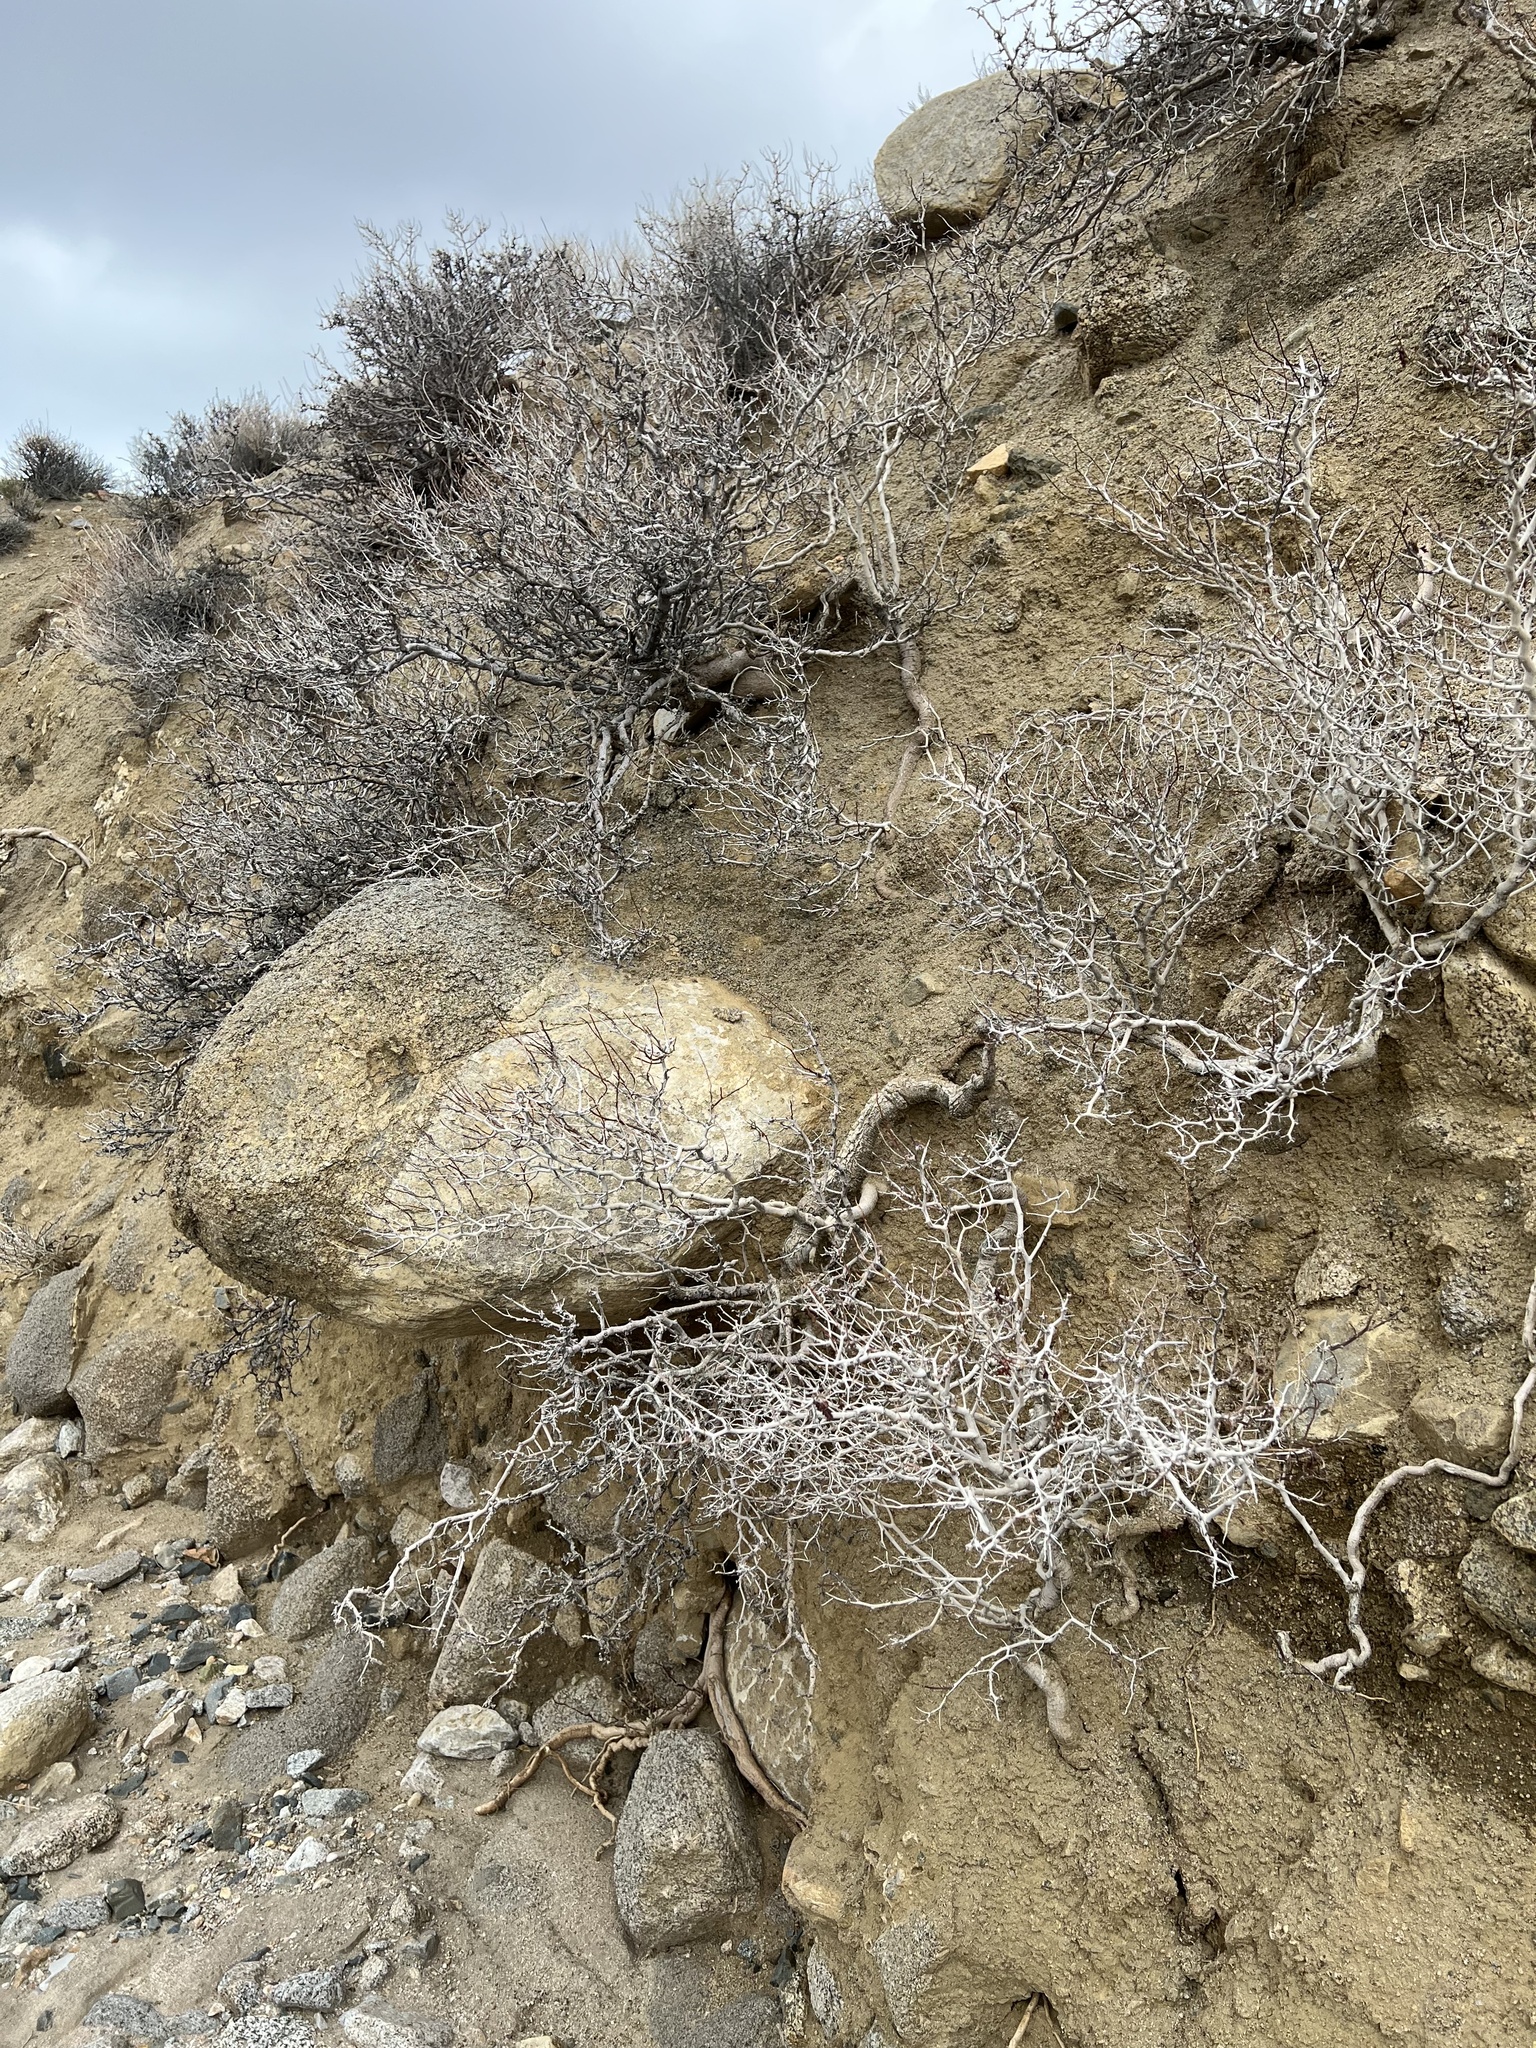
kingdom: Plantae
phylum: Tracheophyta
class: Magnoliopsida
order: Fabales
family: Fabaceae
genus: Psorothamnus
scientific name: Psorothamnus arborescens
